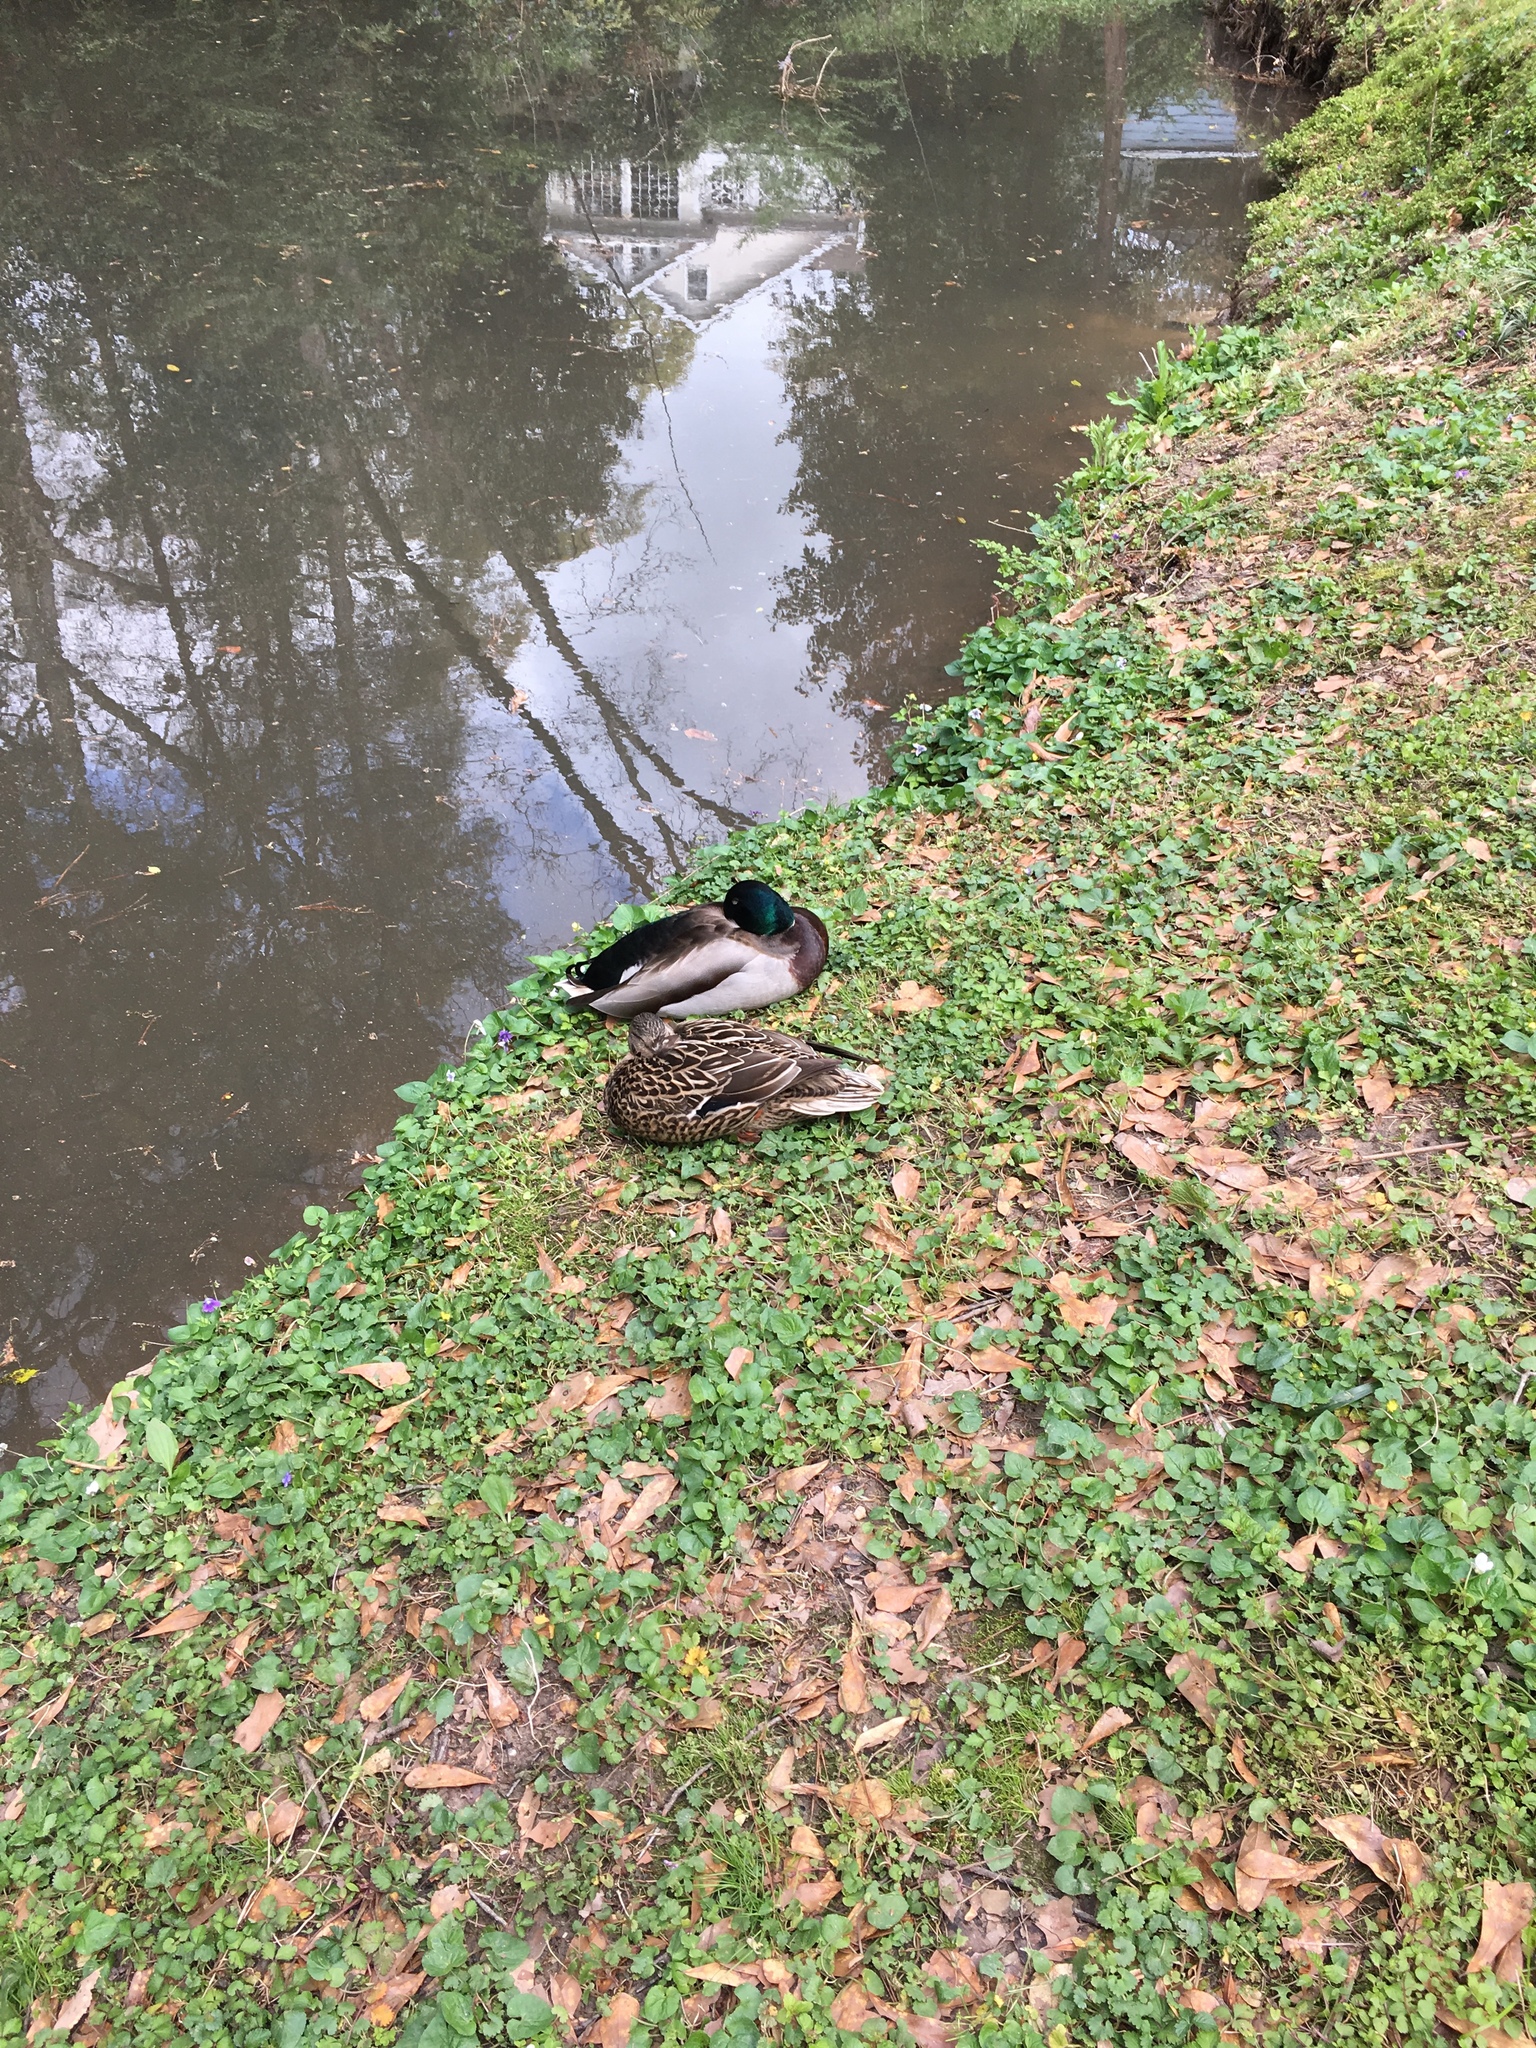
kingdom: Animalia
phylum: Chordata
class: Aves
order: Anseriformes
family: Anatidae
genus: Anas
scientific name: Anas platyrhynchos
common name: Mallard
